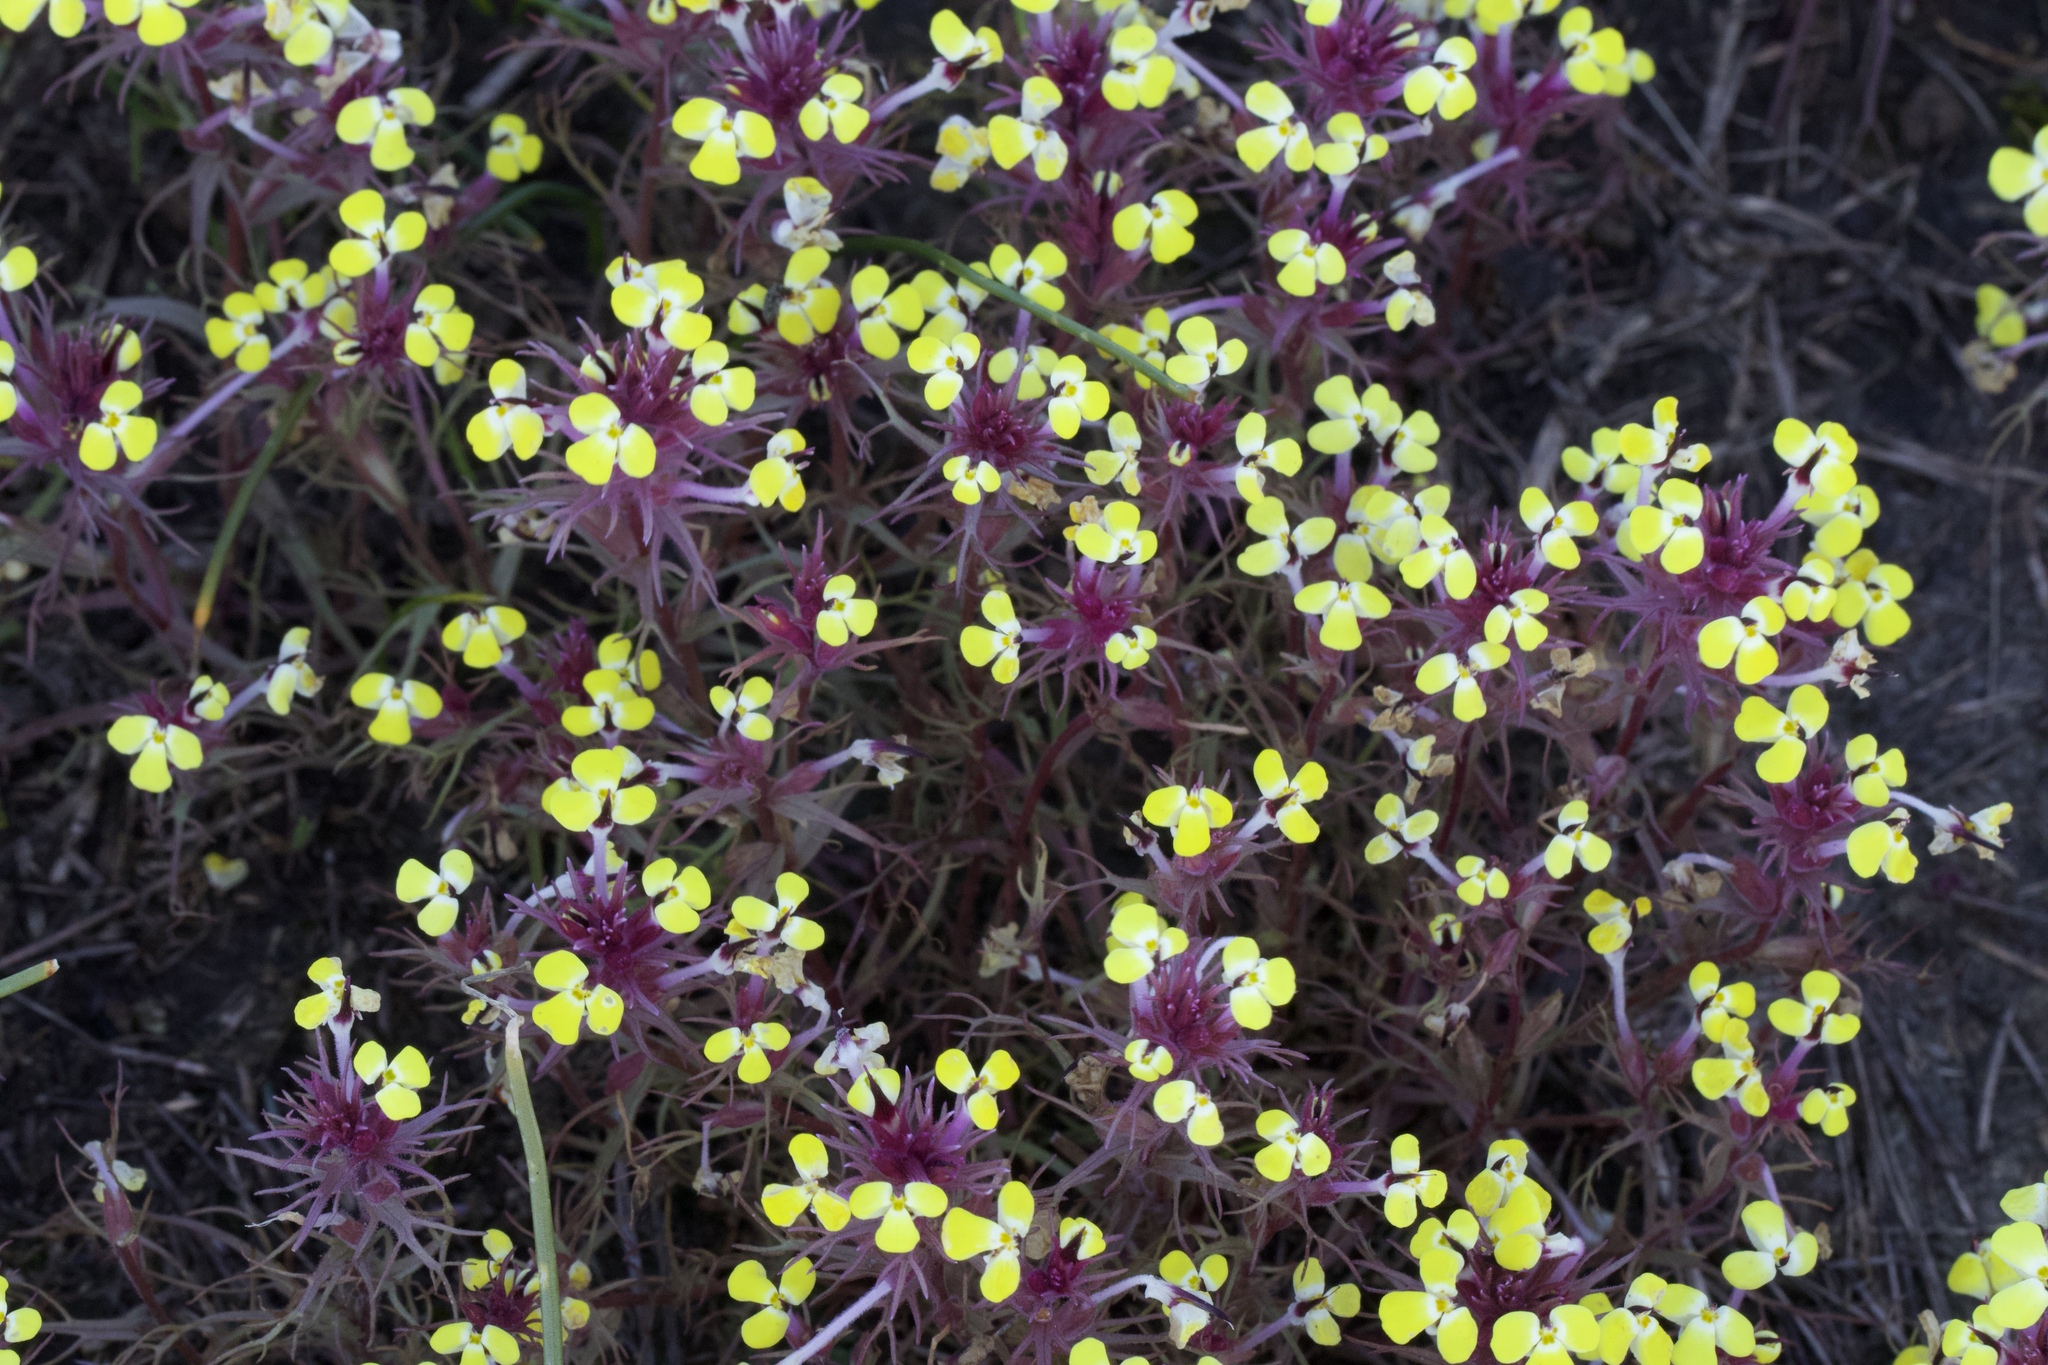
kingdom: Plantae
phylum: Tracheophyta
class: Magnoliopsida
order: Lamiales
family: Orobanchaceae
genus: Triphysaria
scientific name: Triphysaria eriantha
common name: Johnny-tuck
